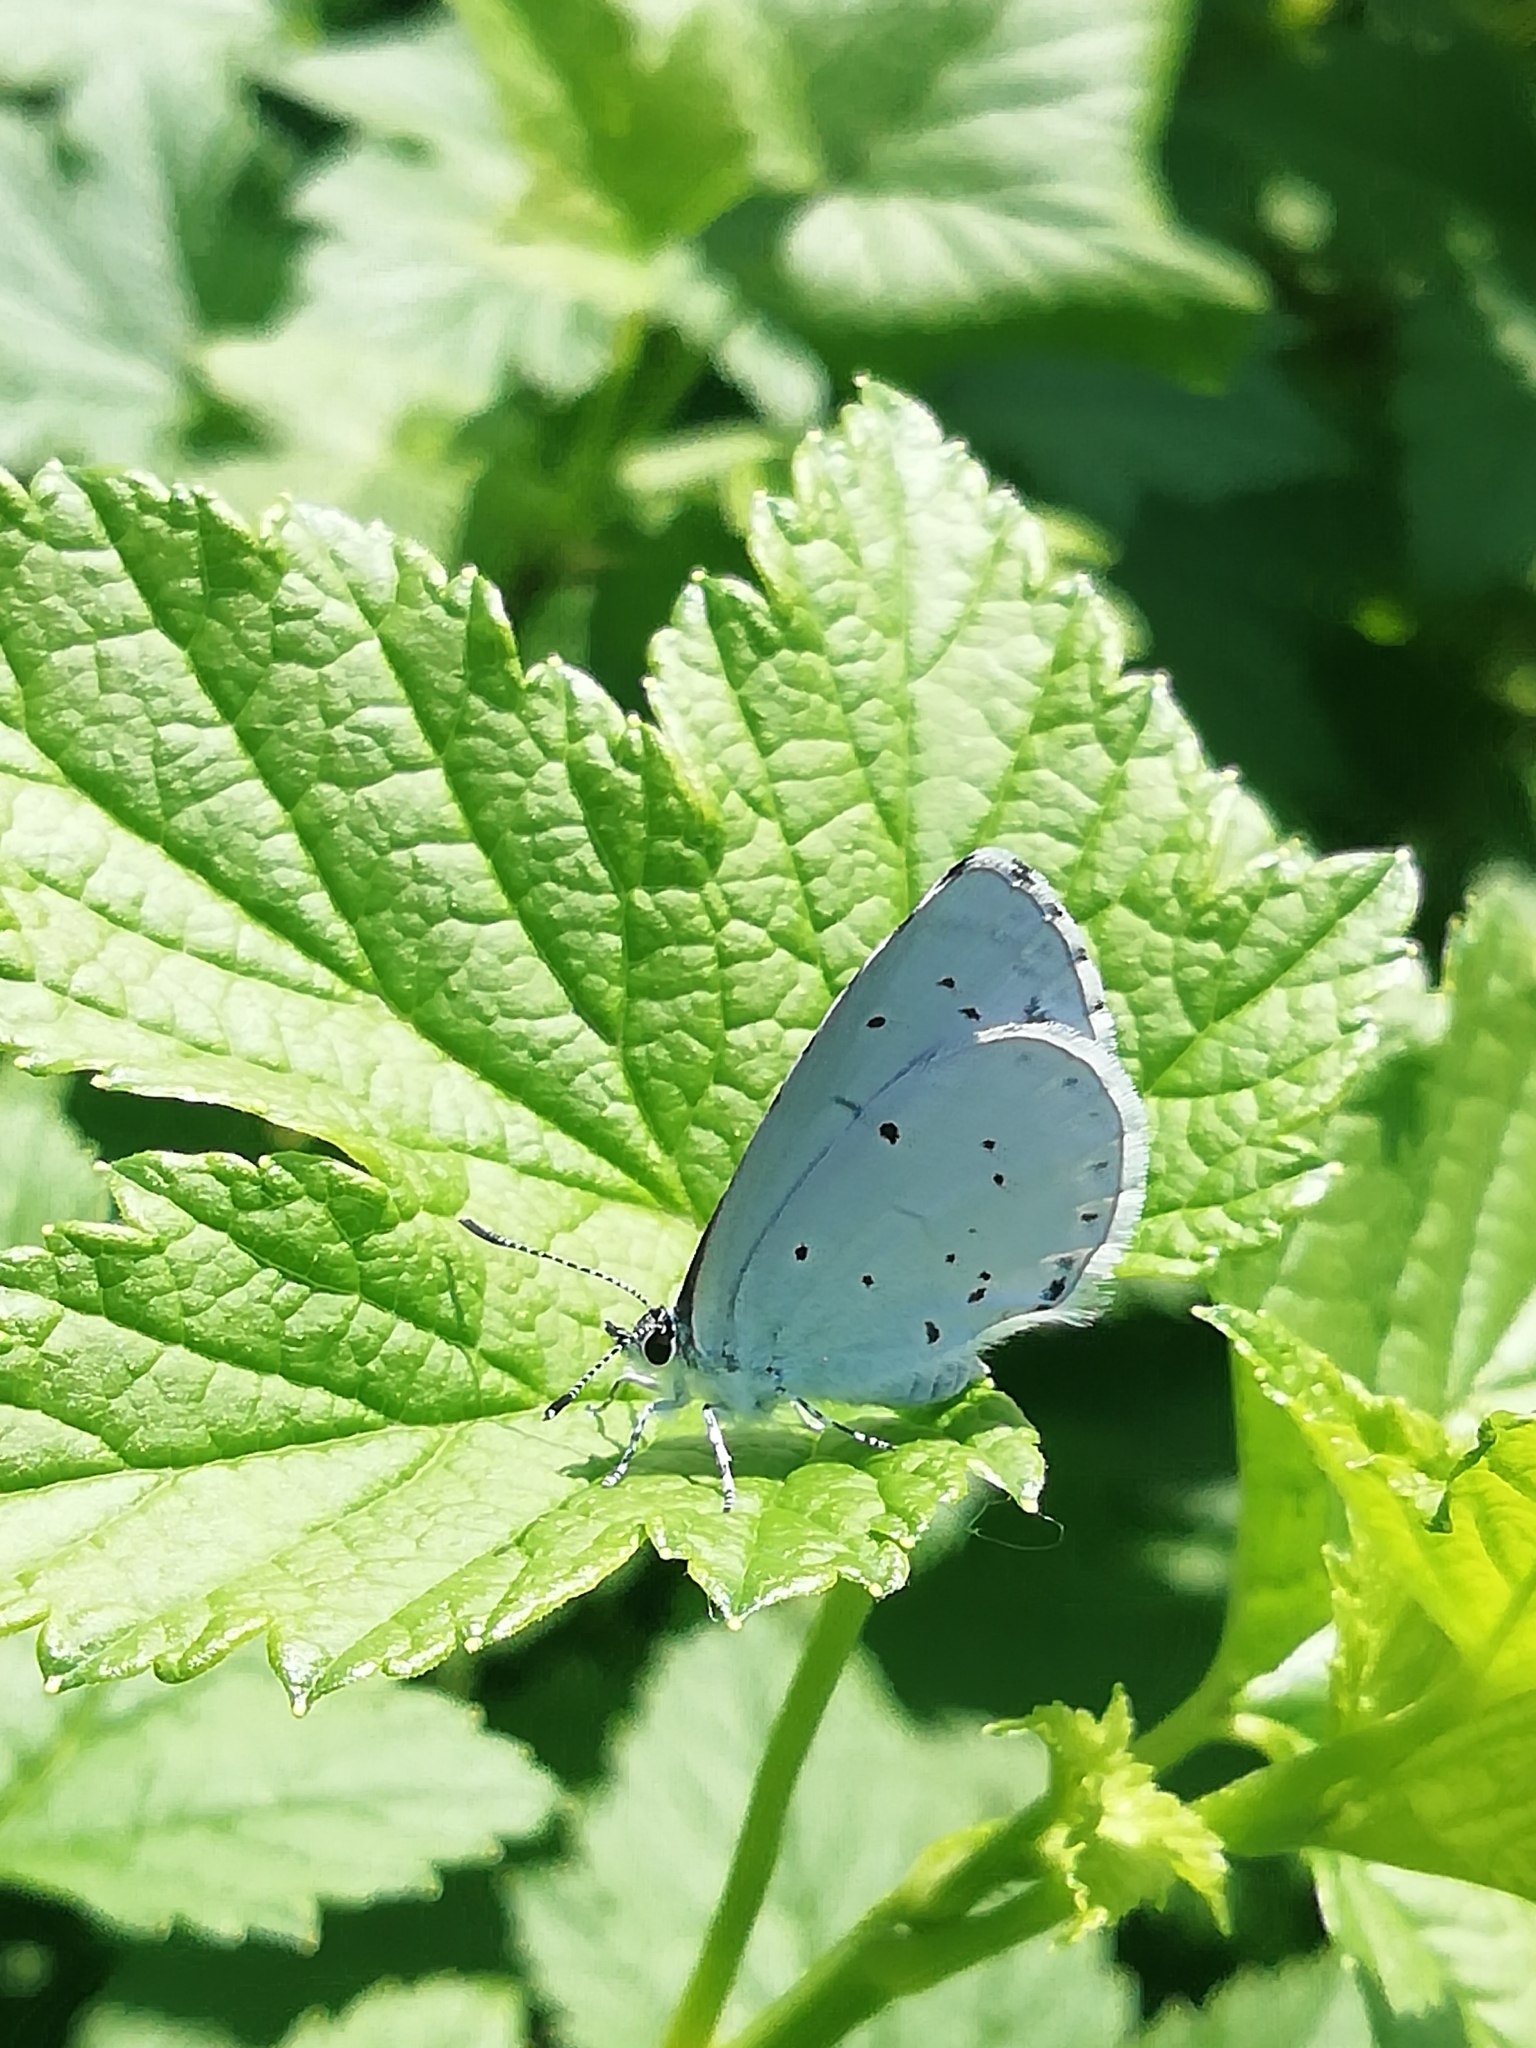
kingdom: Animalia
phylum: Arthropoda
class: Insecta
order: Lepidoptera
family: Lycaenidae
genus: Celastrina
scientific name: Celastrina argiolus
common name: Holly blue
